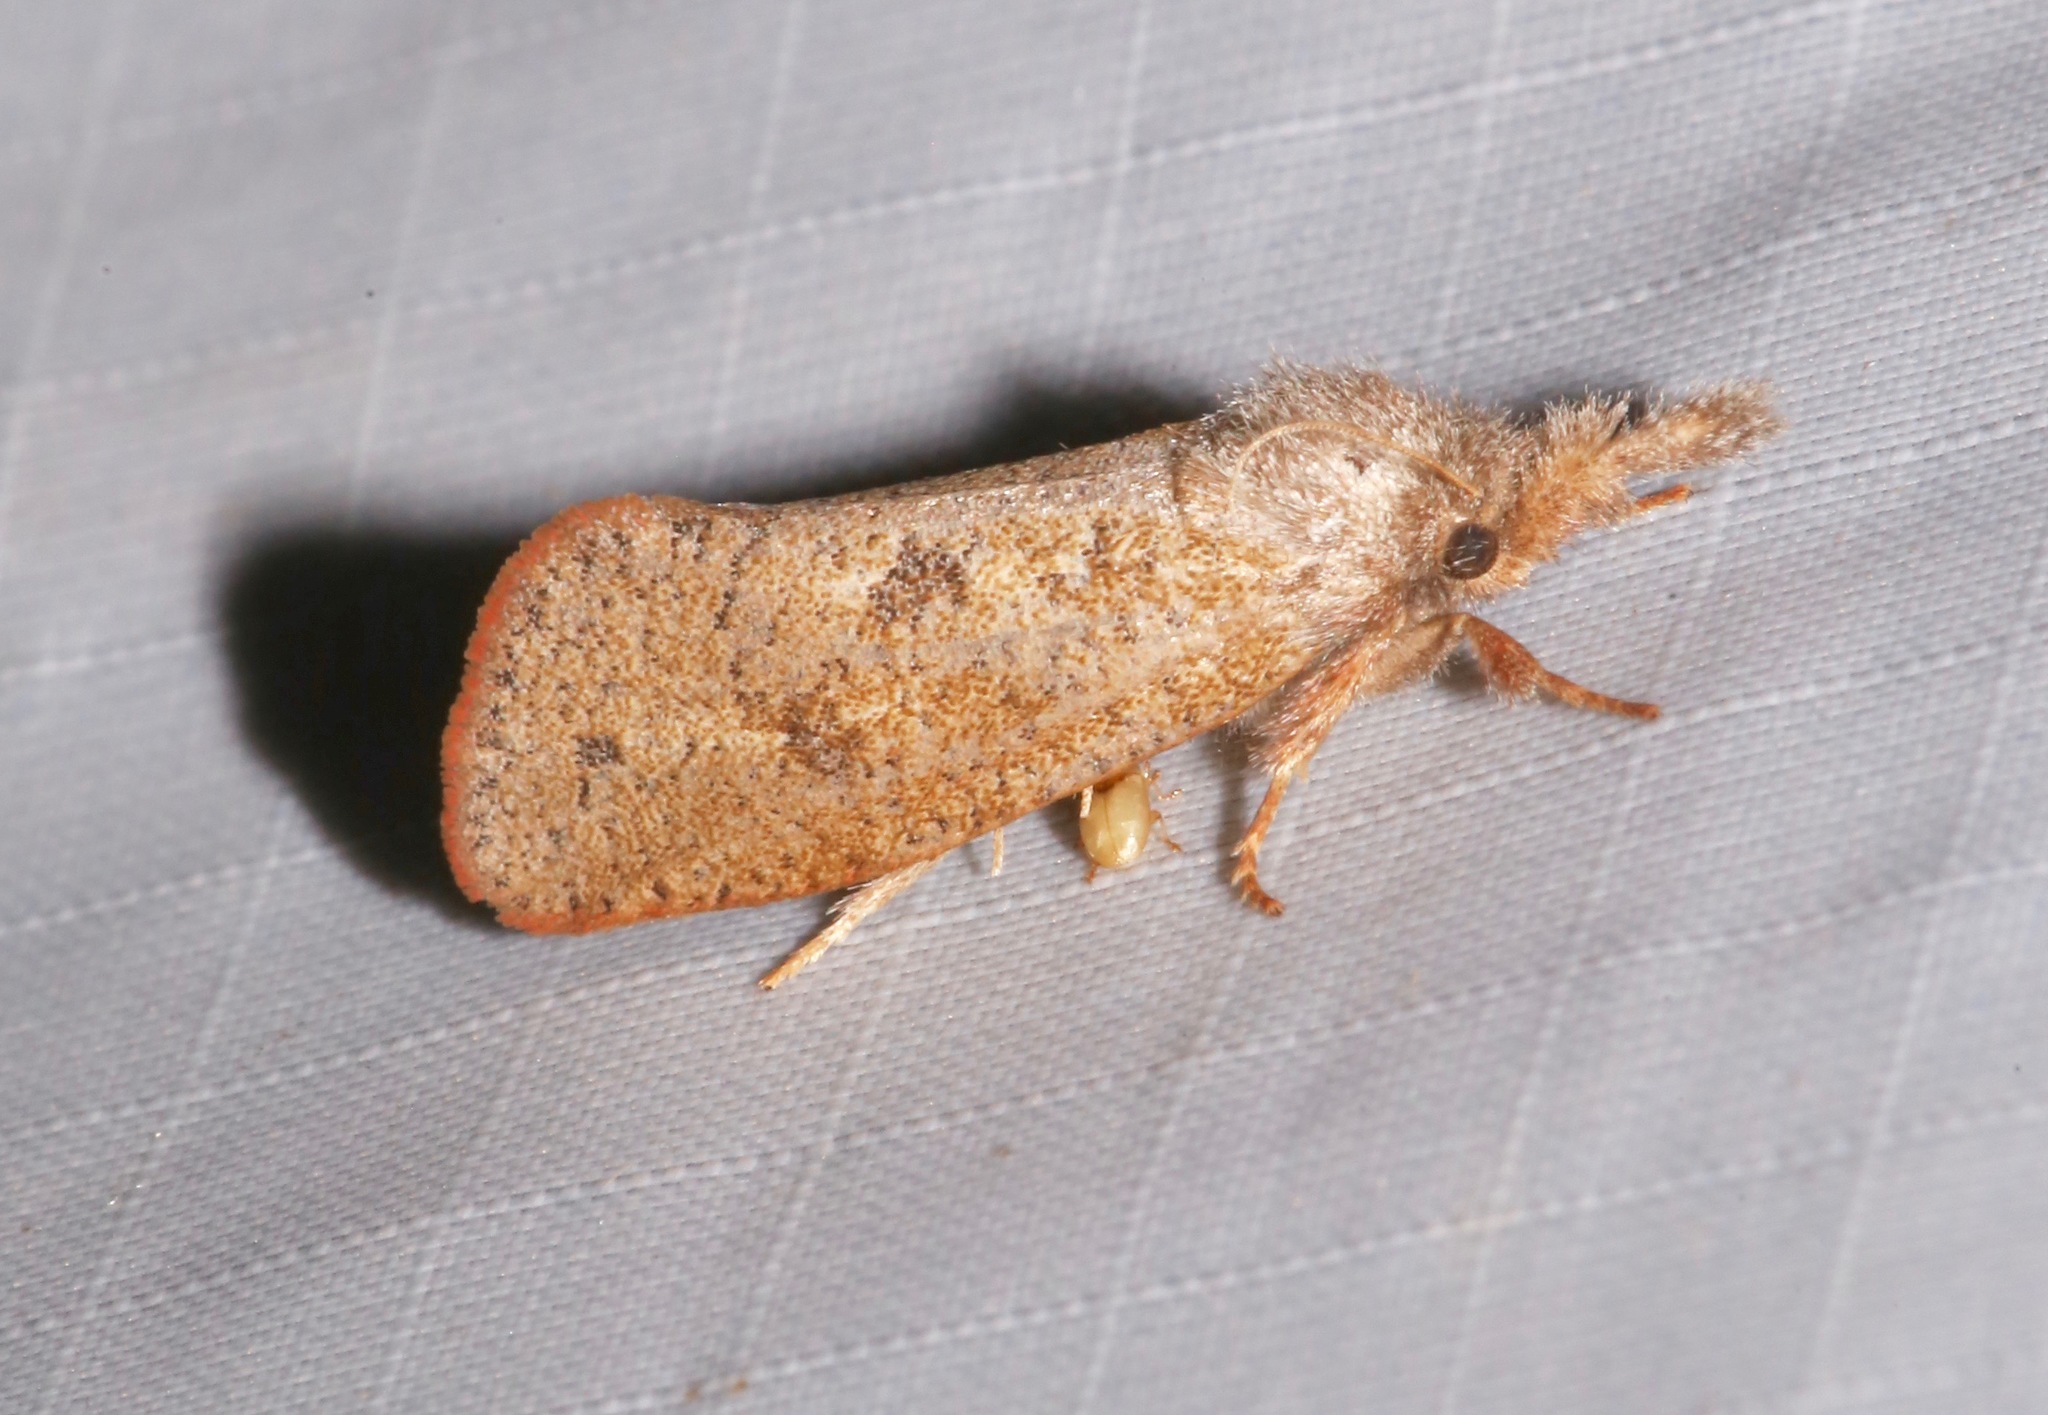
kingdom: Animalia
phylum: Arthropoda
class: Insecta
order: Lepidoptera
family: Tineidae
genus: Acrolophus
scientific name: Acrolophus plumifrontella
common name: Eastern grass tubeworm moth
